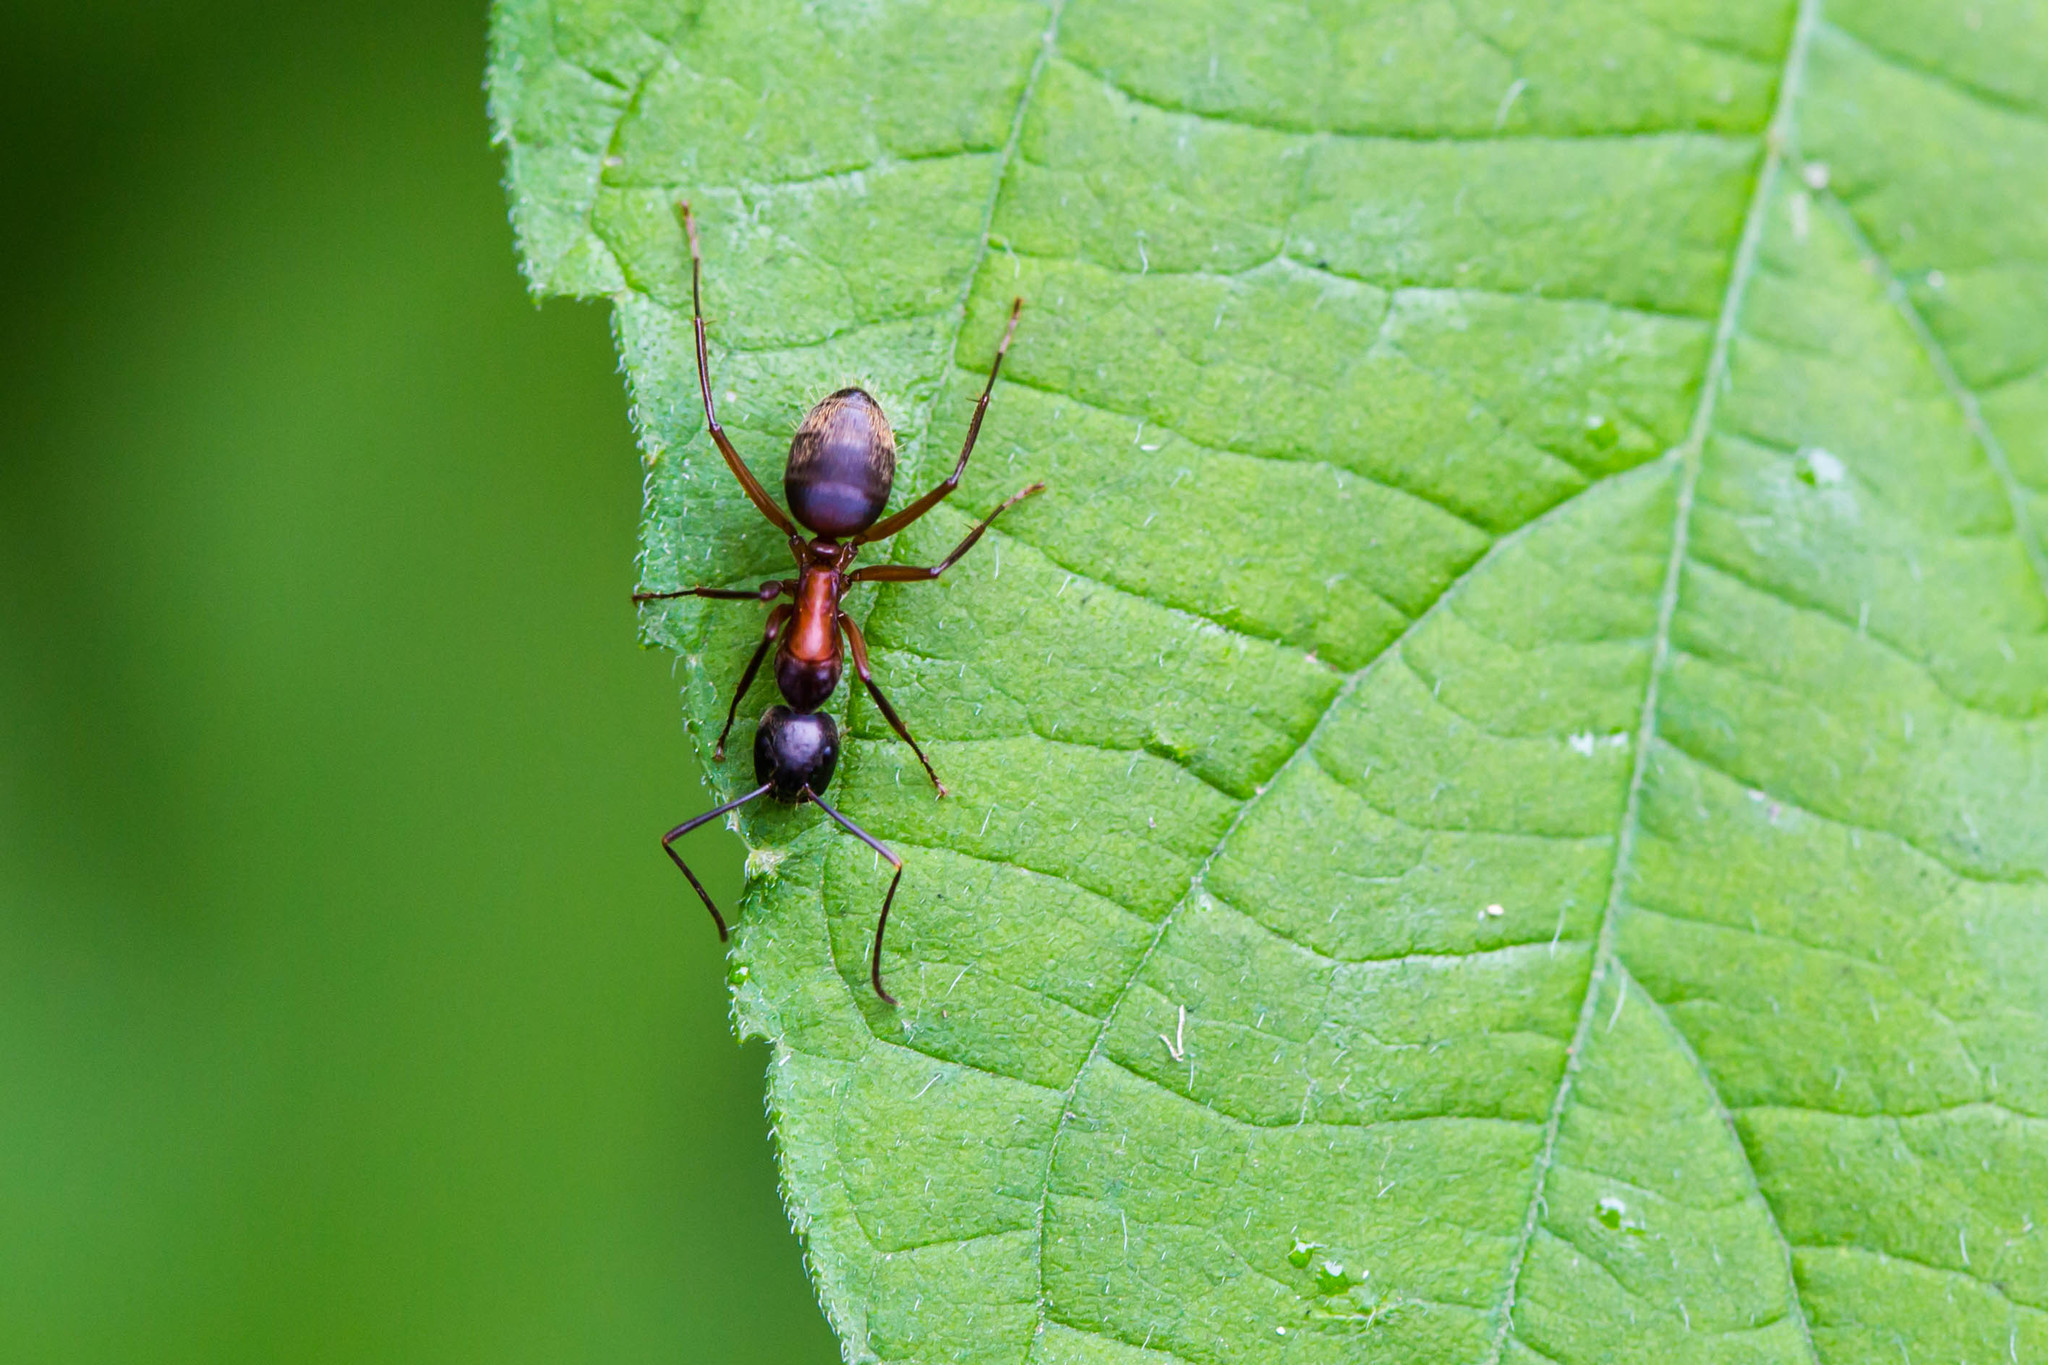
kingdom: Animalia
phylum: Arthropoda
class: Insecta
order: Hymenoptera
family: Formicidae
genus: Camponotus
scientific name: Camponotus chromaiodes
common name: Red carpenter ant
